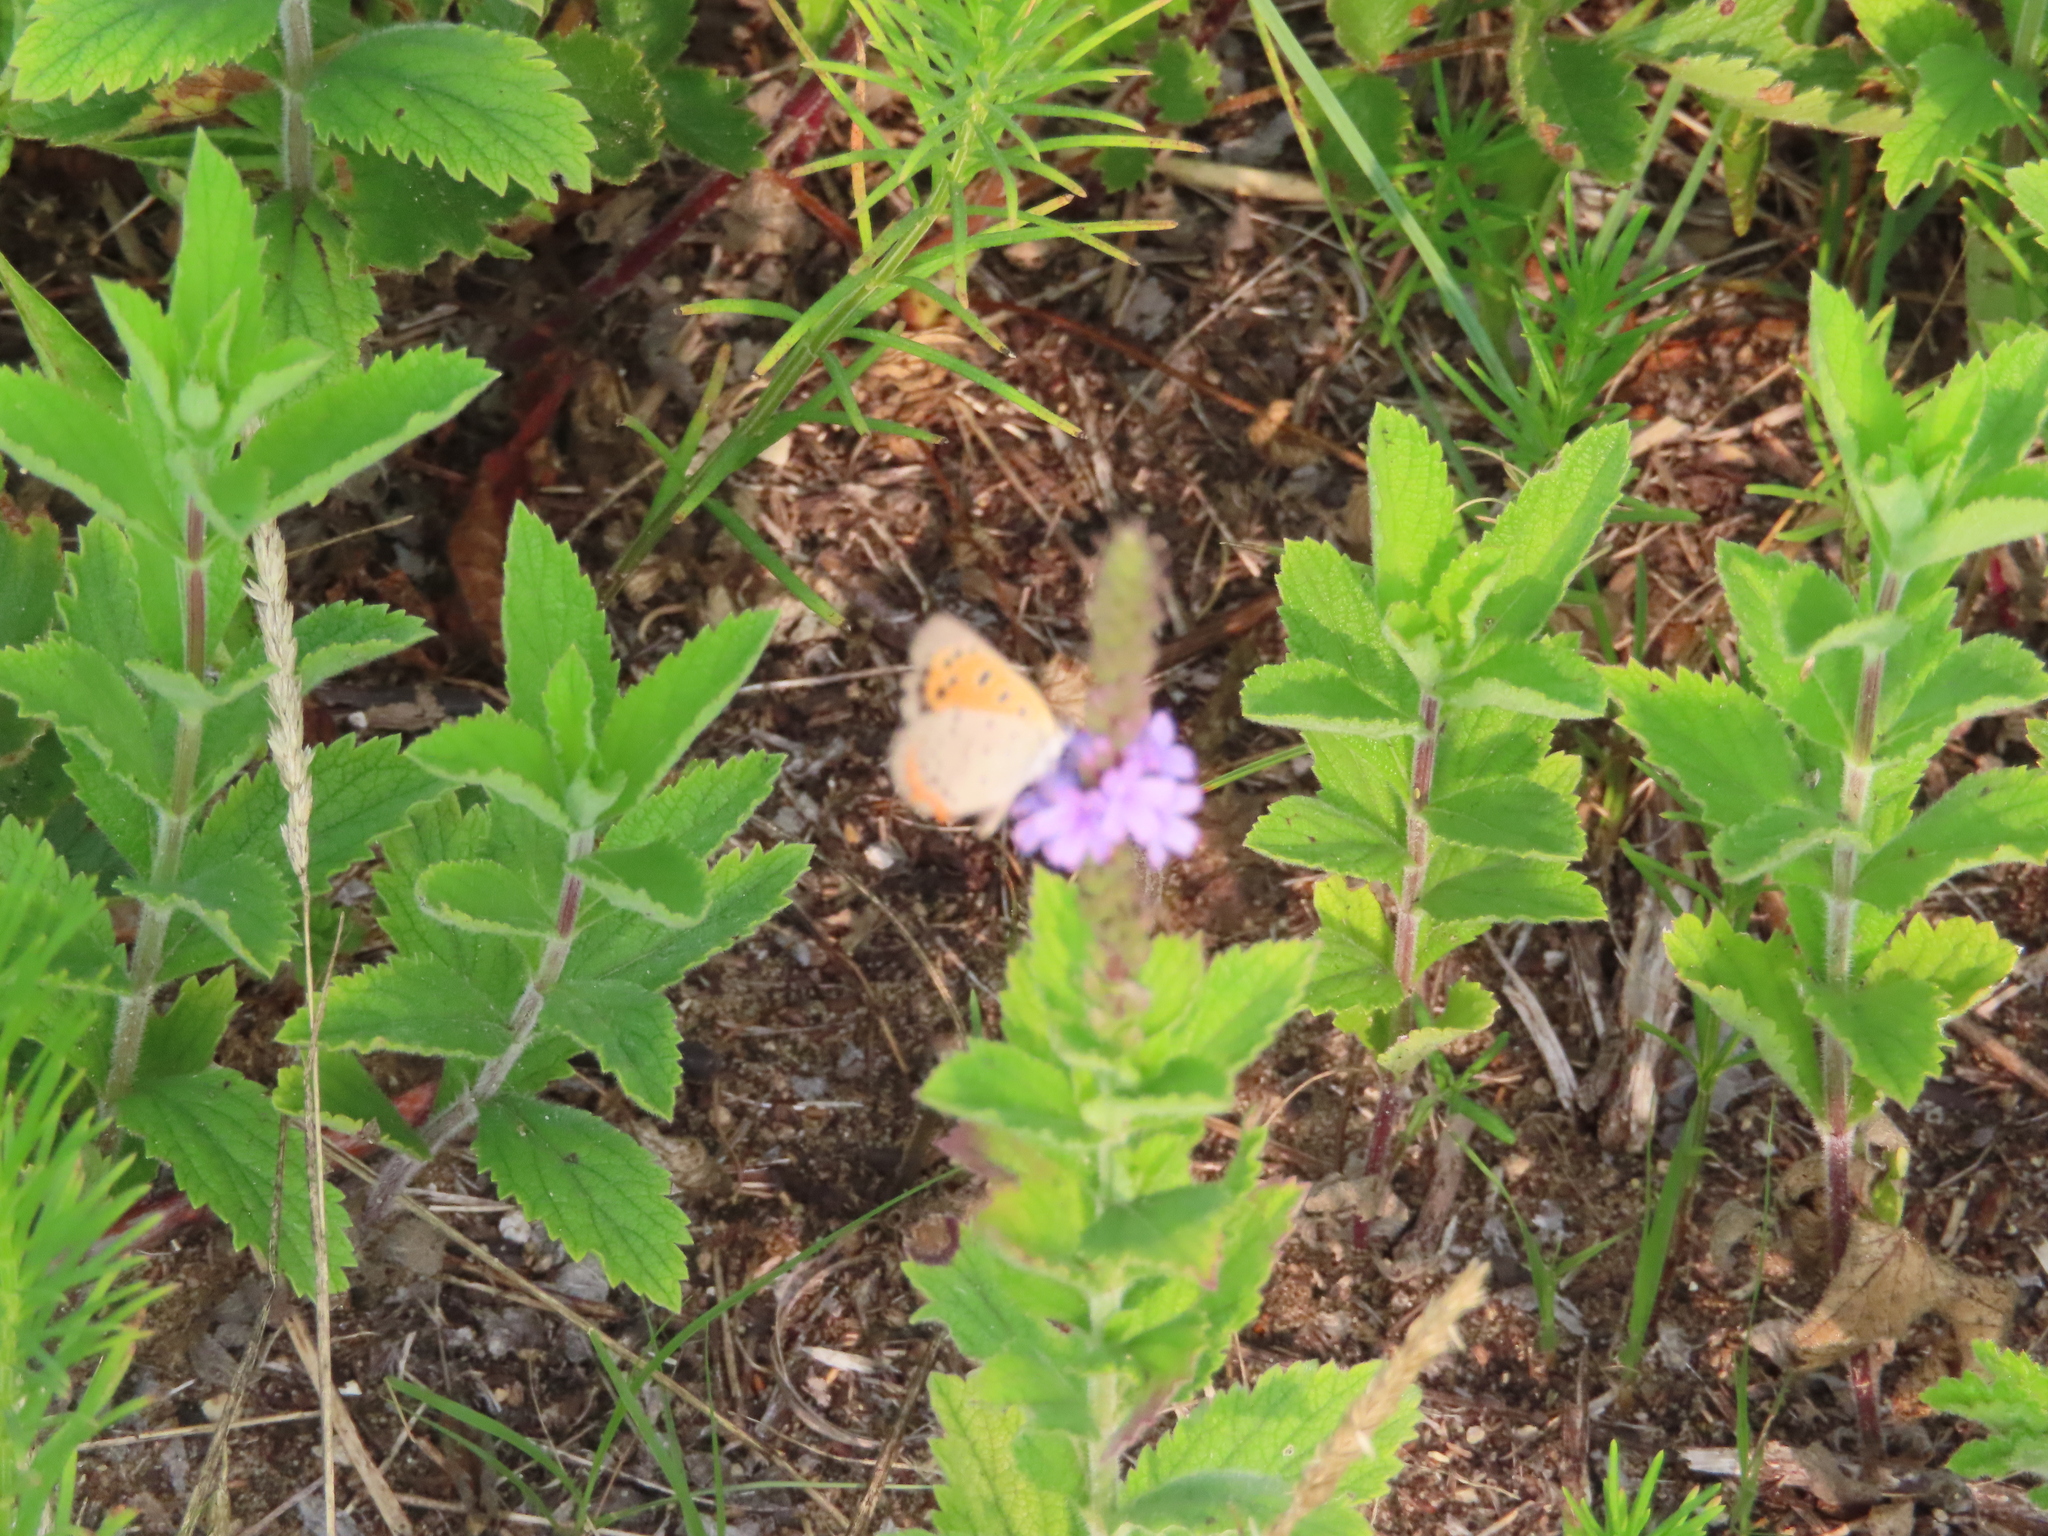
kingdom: Animalia
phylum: Arthropoda
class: Insecta
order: Lepidoptera
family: Lycaenidae
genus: Lycaena
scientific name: Lycaena hypophlaeas
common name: American copper
